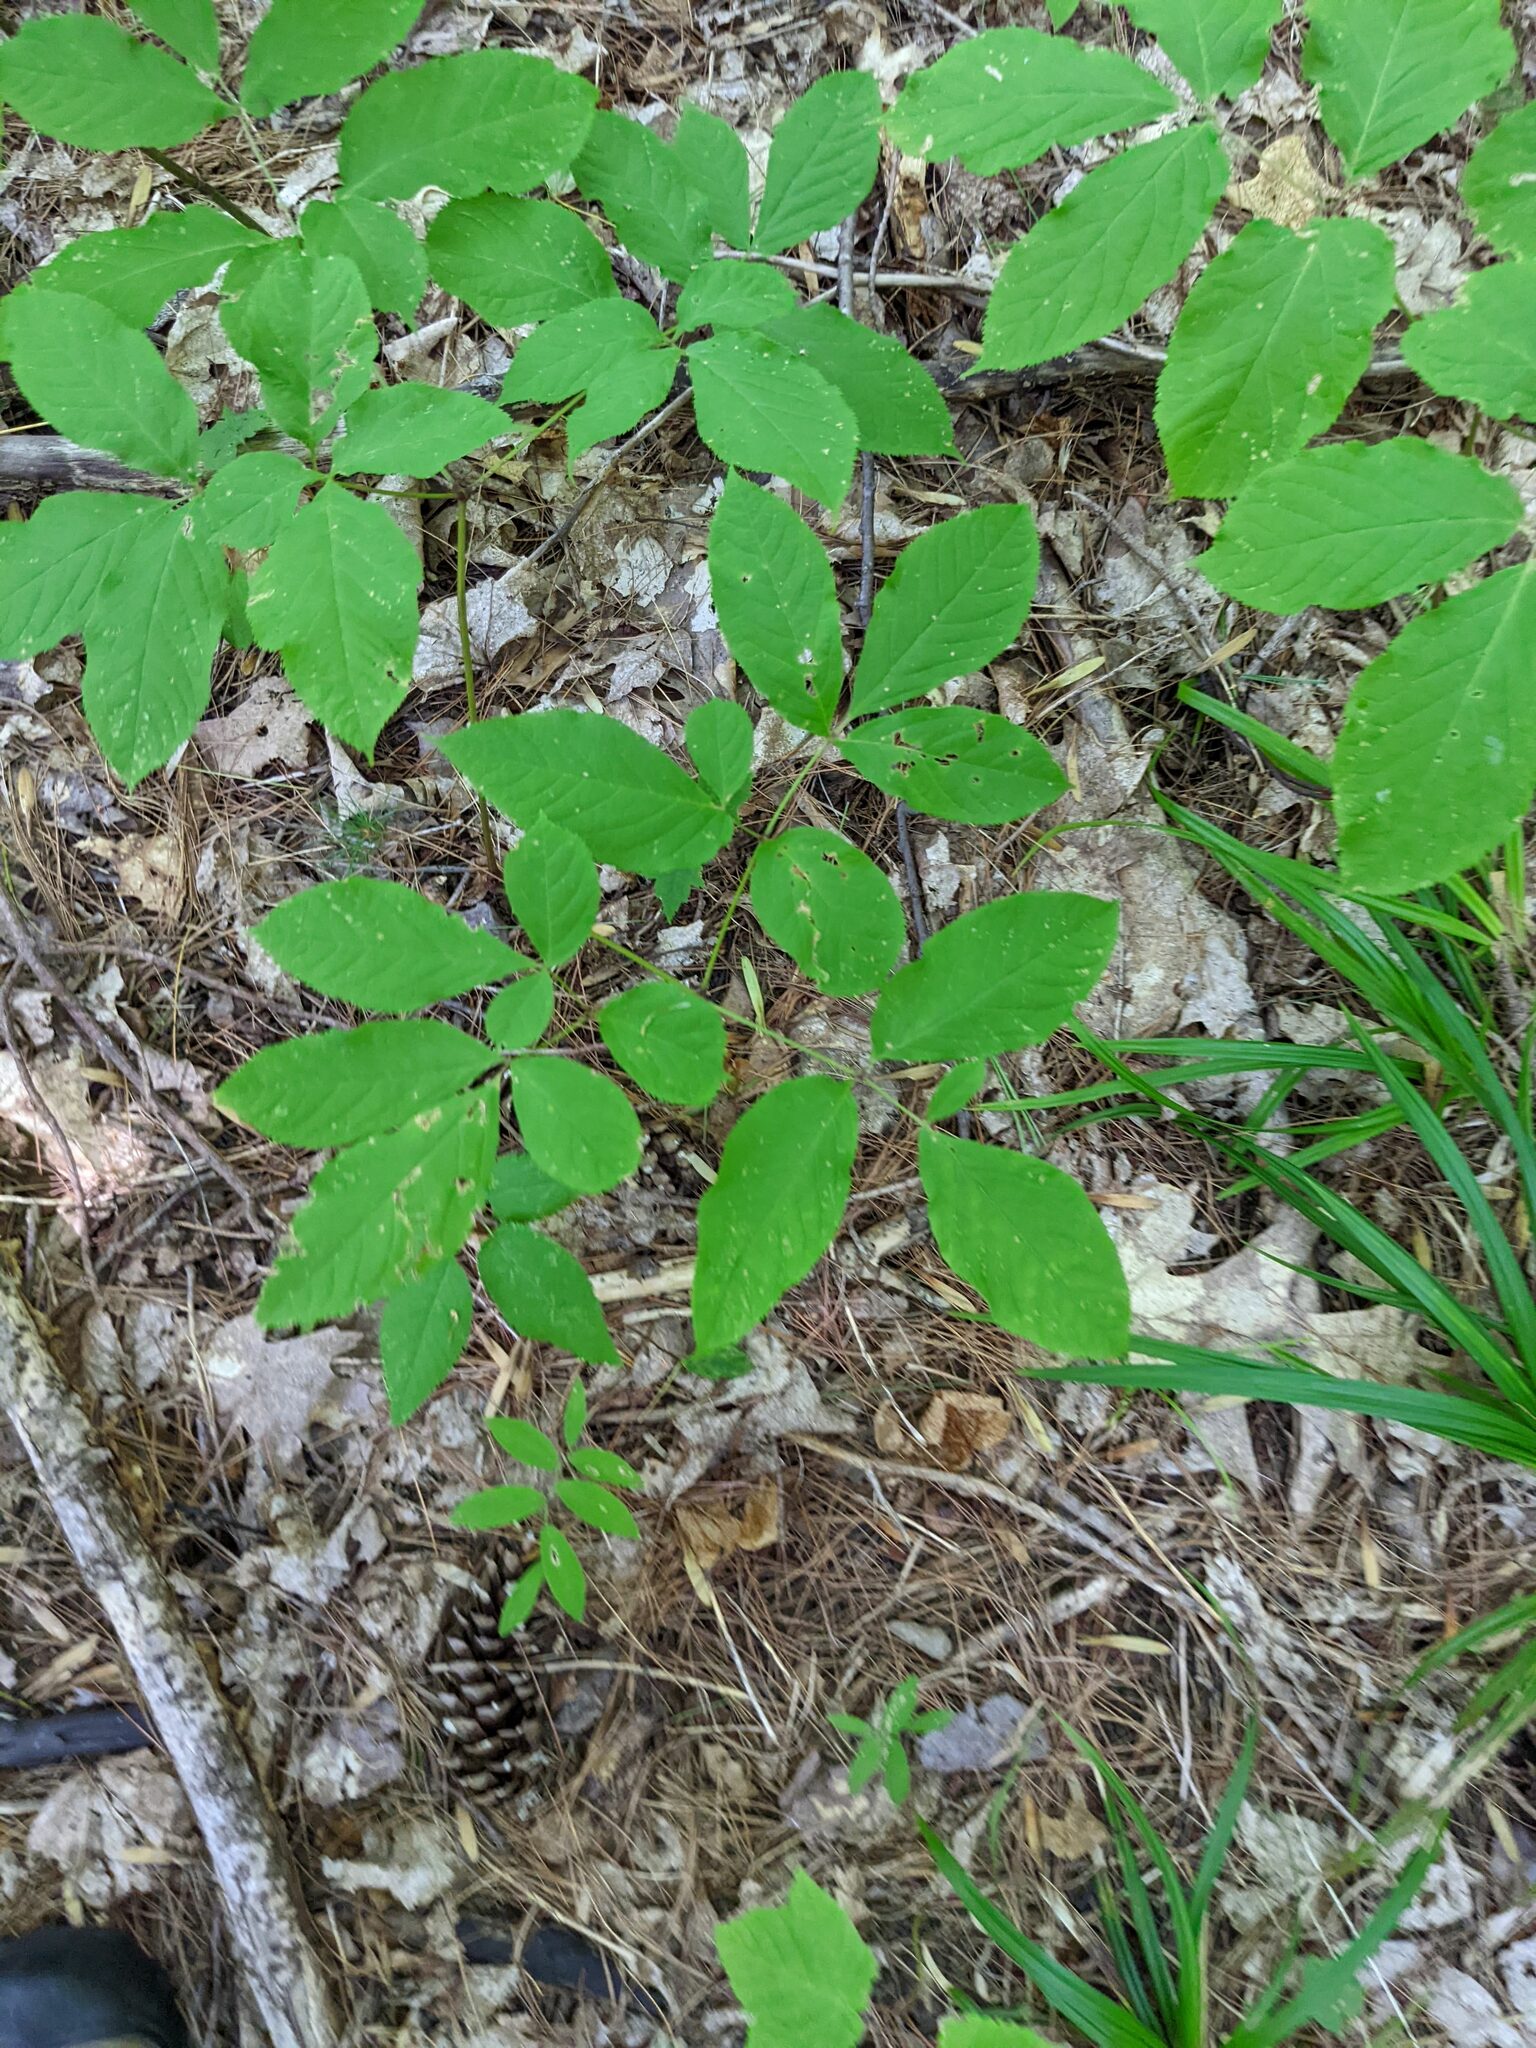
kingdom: Plantae
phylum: Tracheophyta
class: Magnoliopsida
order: Apiales
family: Araliaceae
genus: Aralia
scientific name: Aralia nudicaulis
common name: Wild sarsaparilla
